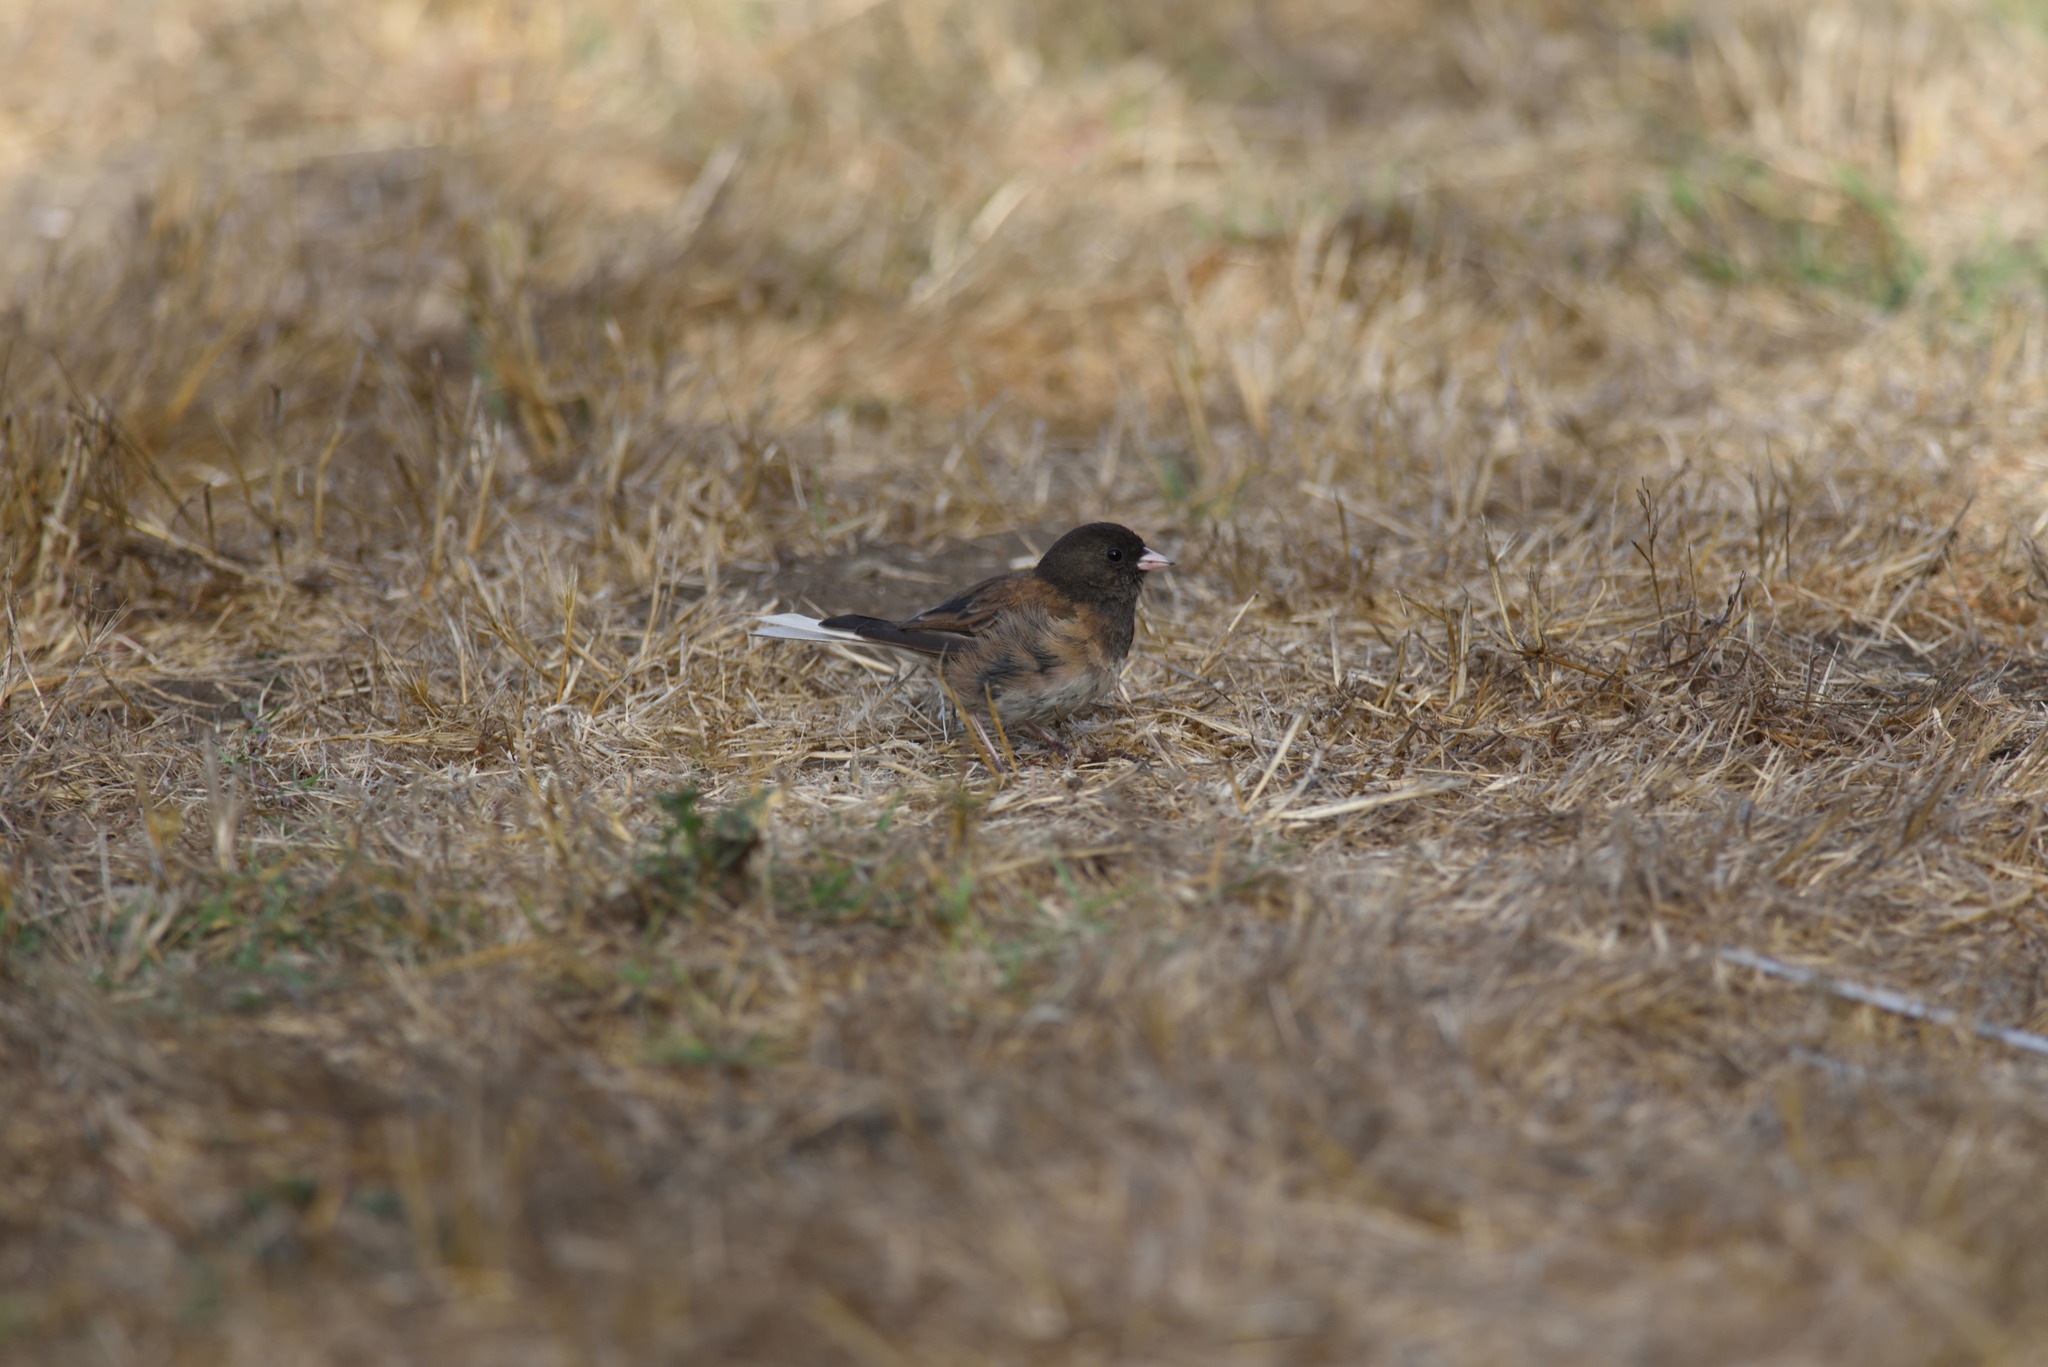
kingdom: Animalia
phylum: Chordata
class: Aves
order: Passeriformes
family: Passerellidae
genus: Junco
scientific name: Junco hyemalis
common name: Dark-eyed junco
